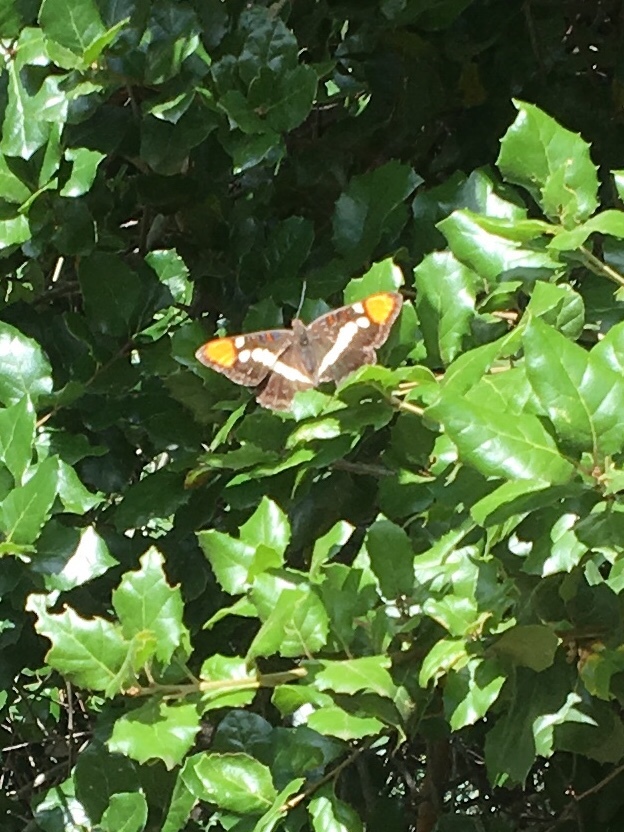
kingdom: Animalia
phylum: Arthropoda
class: Insecta
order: Lepidoptera
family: Nymphalidae
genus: Limenitis
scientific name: Limenitis bredowii
